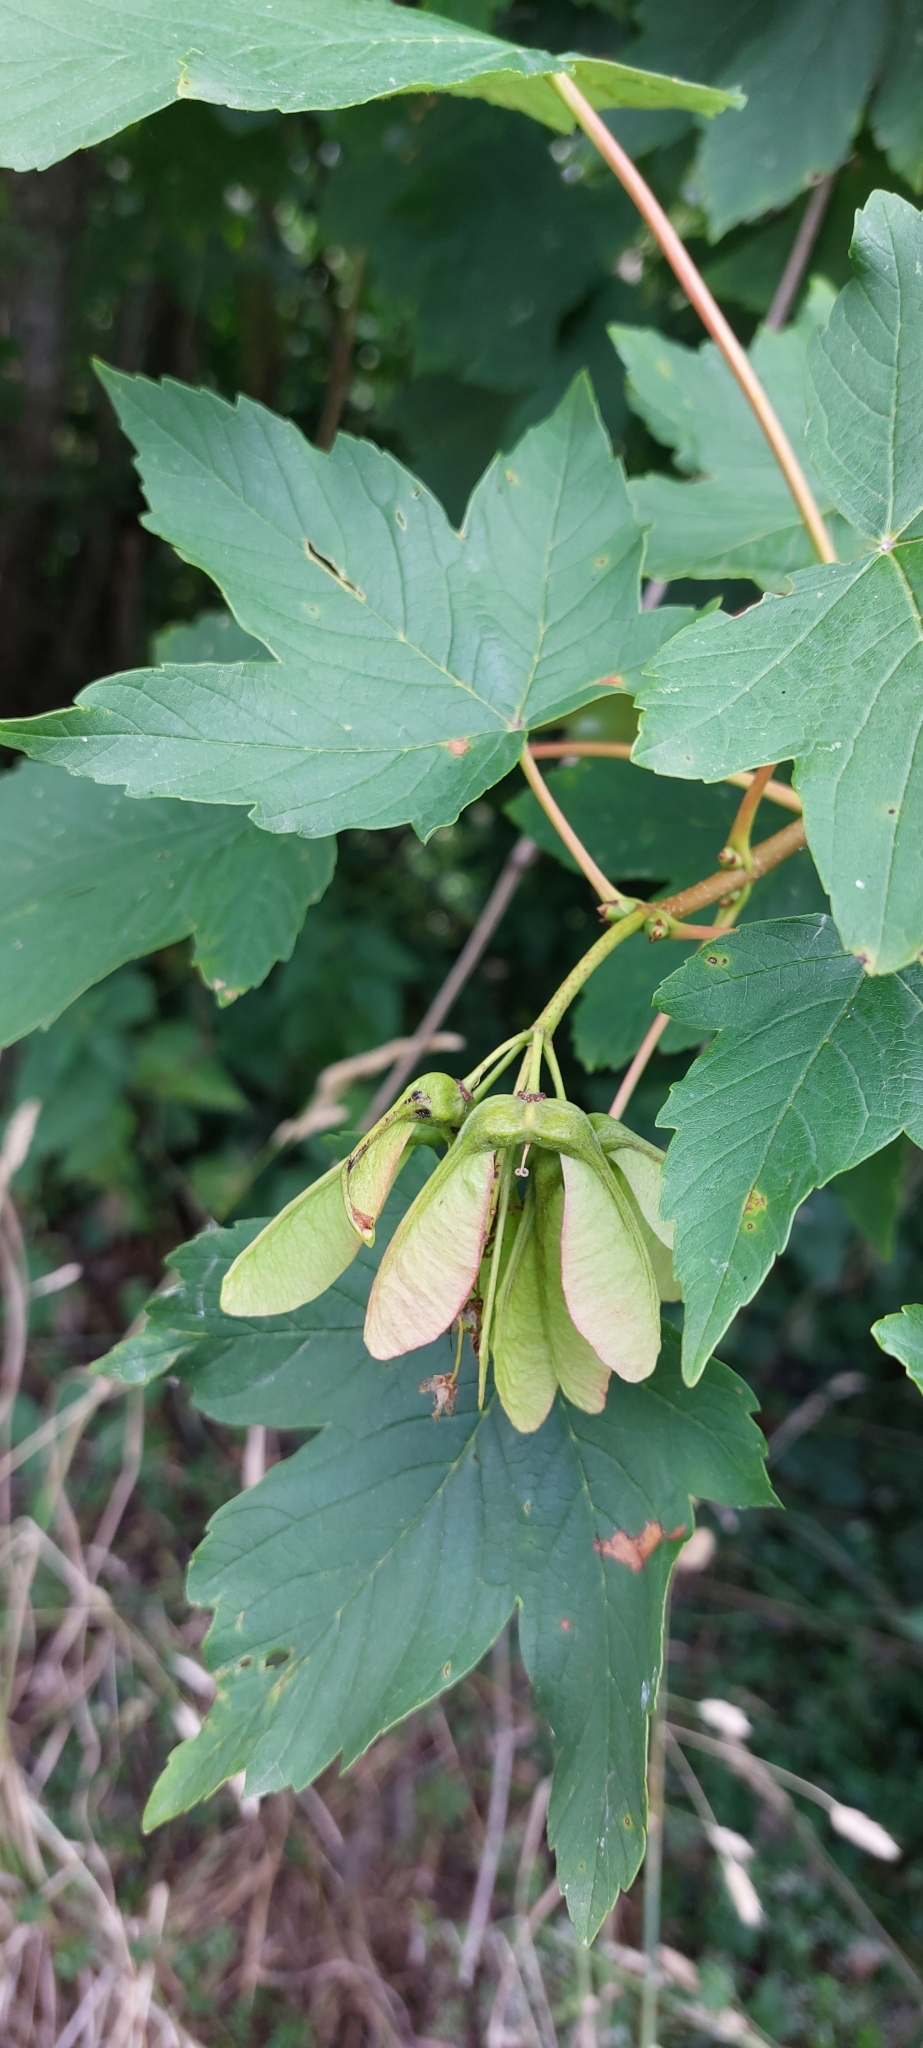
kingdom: Plantae
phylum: Tracheophyta
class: Magnoliopsida
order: Sapindales
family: Sapindaceae
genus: Acer
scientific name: Acer pseudoplatanus
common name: Sycamore
